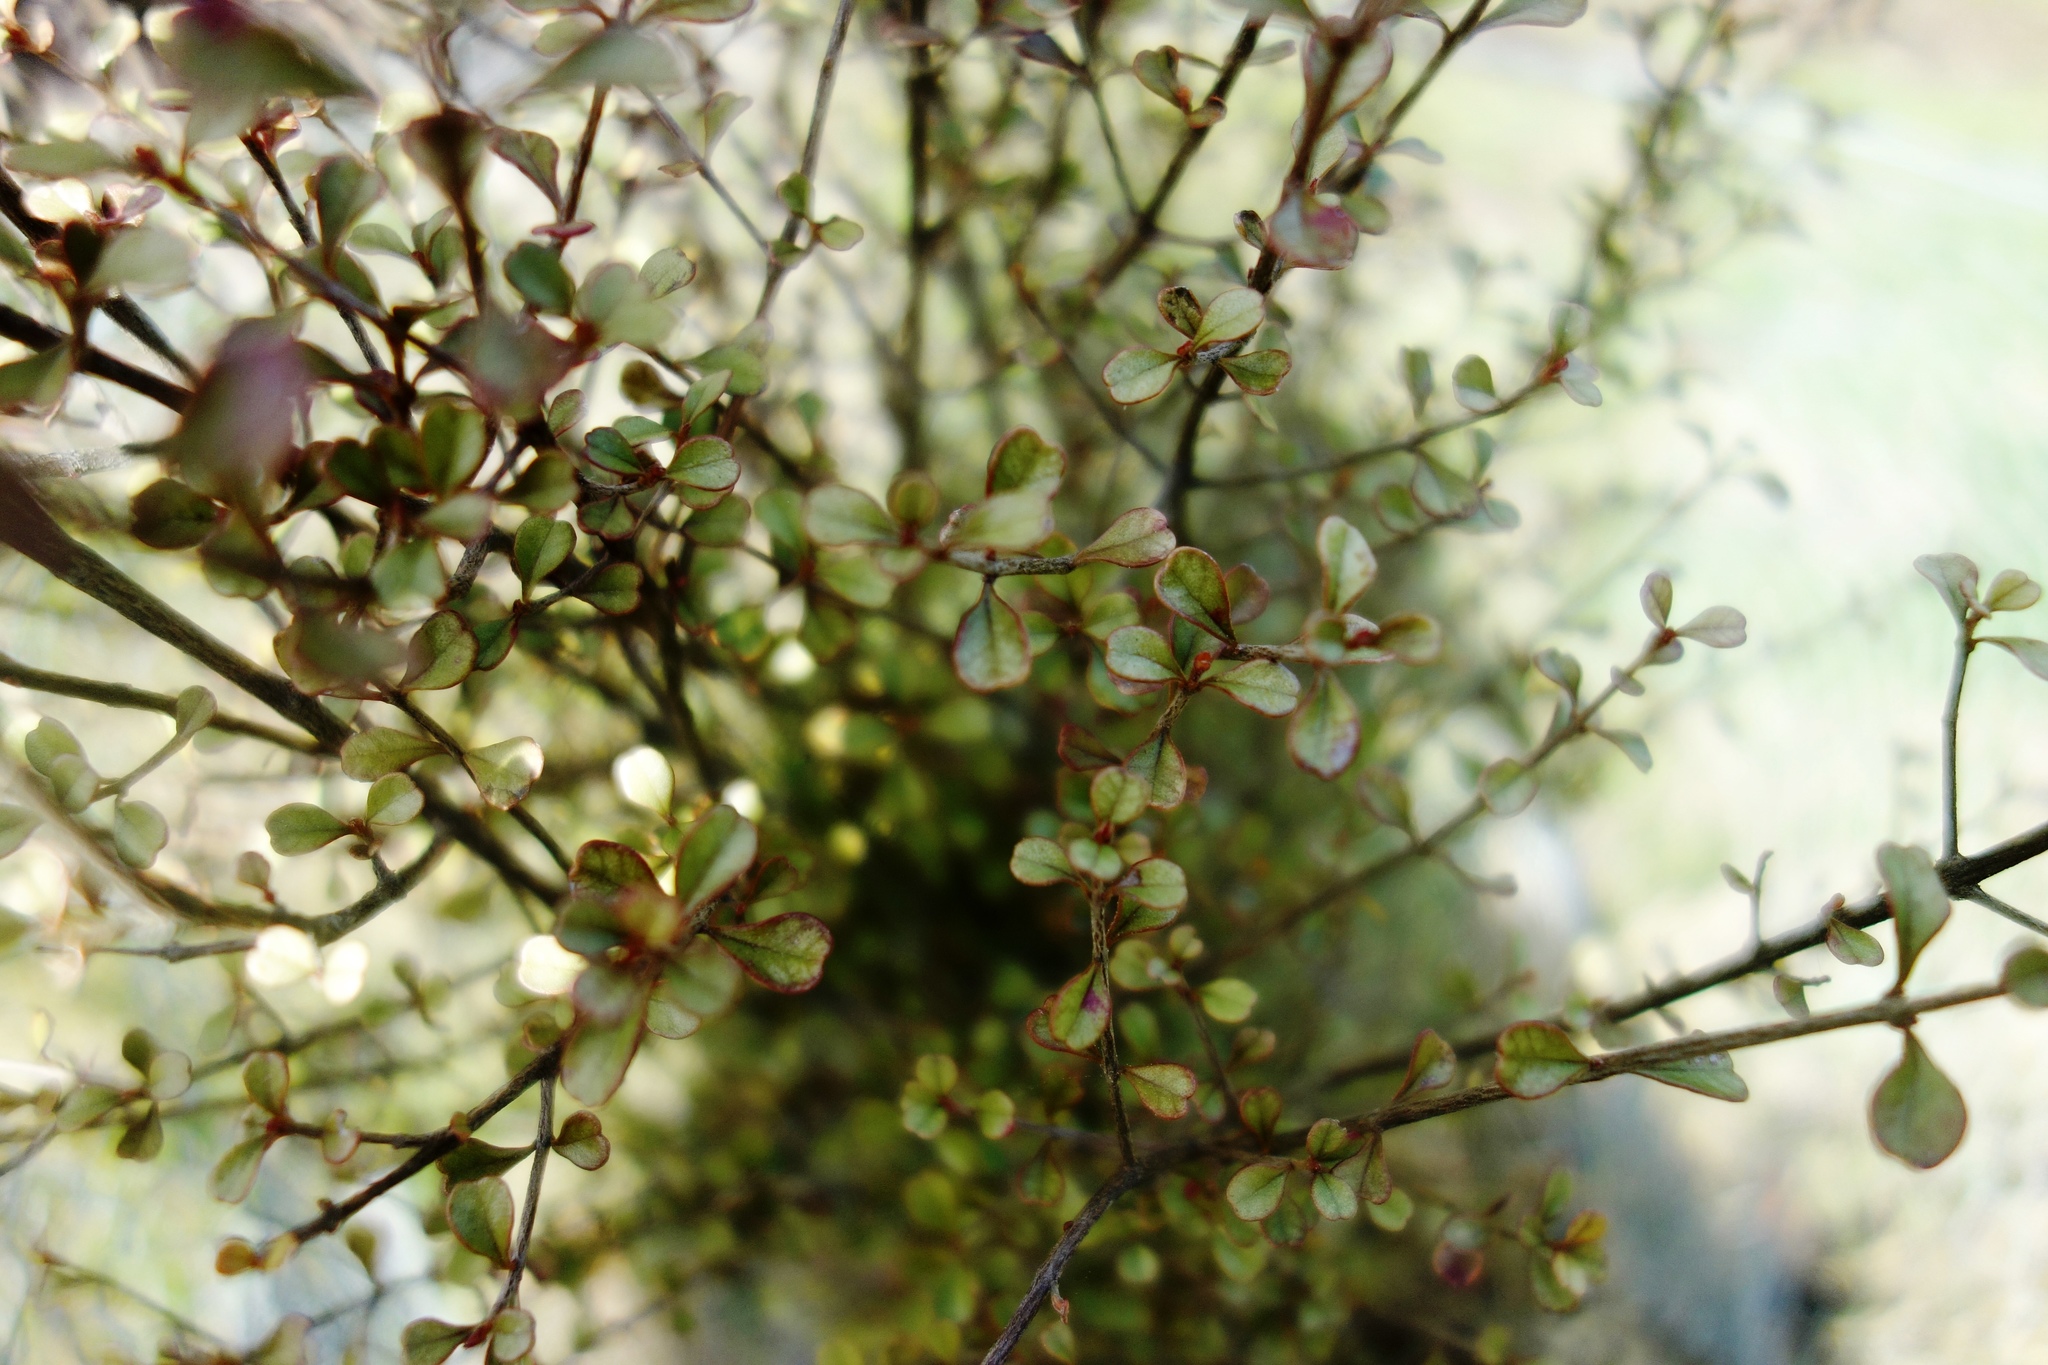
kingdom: Plantae
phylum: Tracheophyta
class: Magnoliopsida
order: Myrtales
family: Myrtaceae
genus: Lophomyrtus
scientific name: Lophomyrtus obcordata
